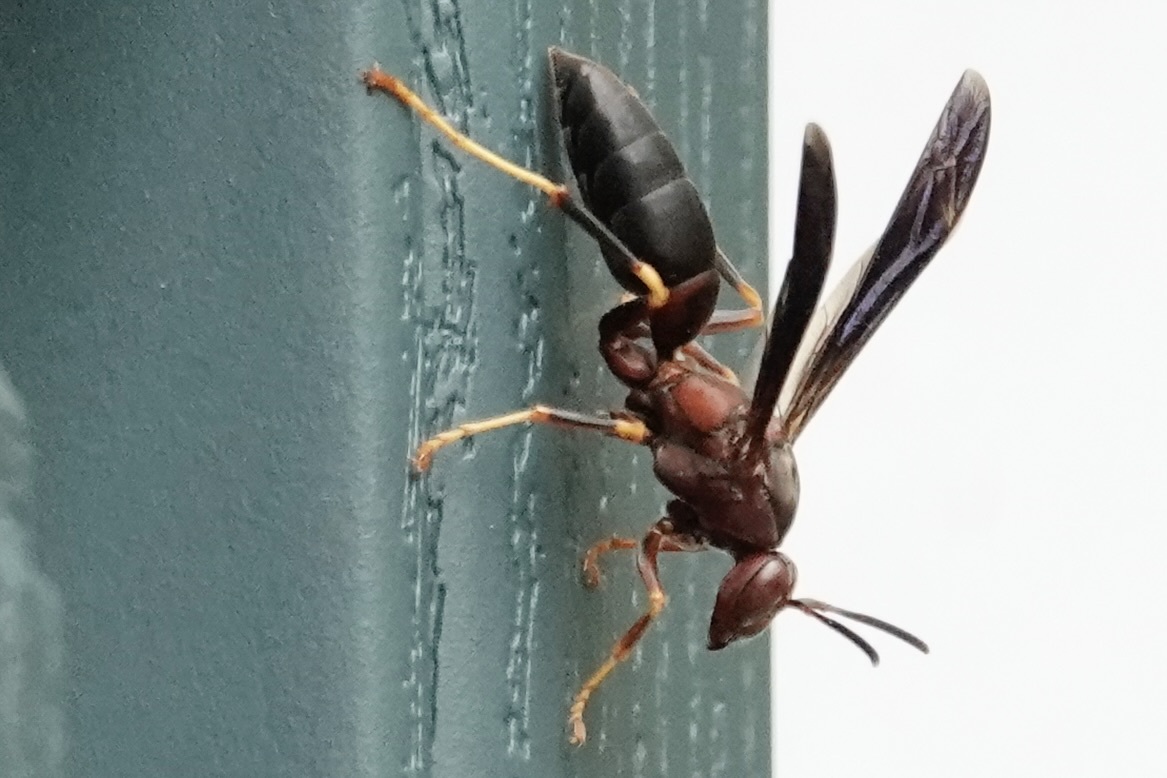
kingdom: Animalia
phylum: Arthropoda
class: Insecta
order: Hymenoptera
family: Eumenidae
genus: Polistes
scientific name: Polistes metricus
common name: Metric paper wasp
